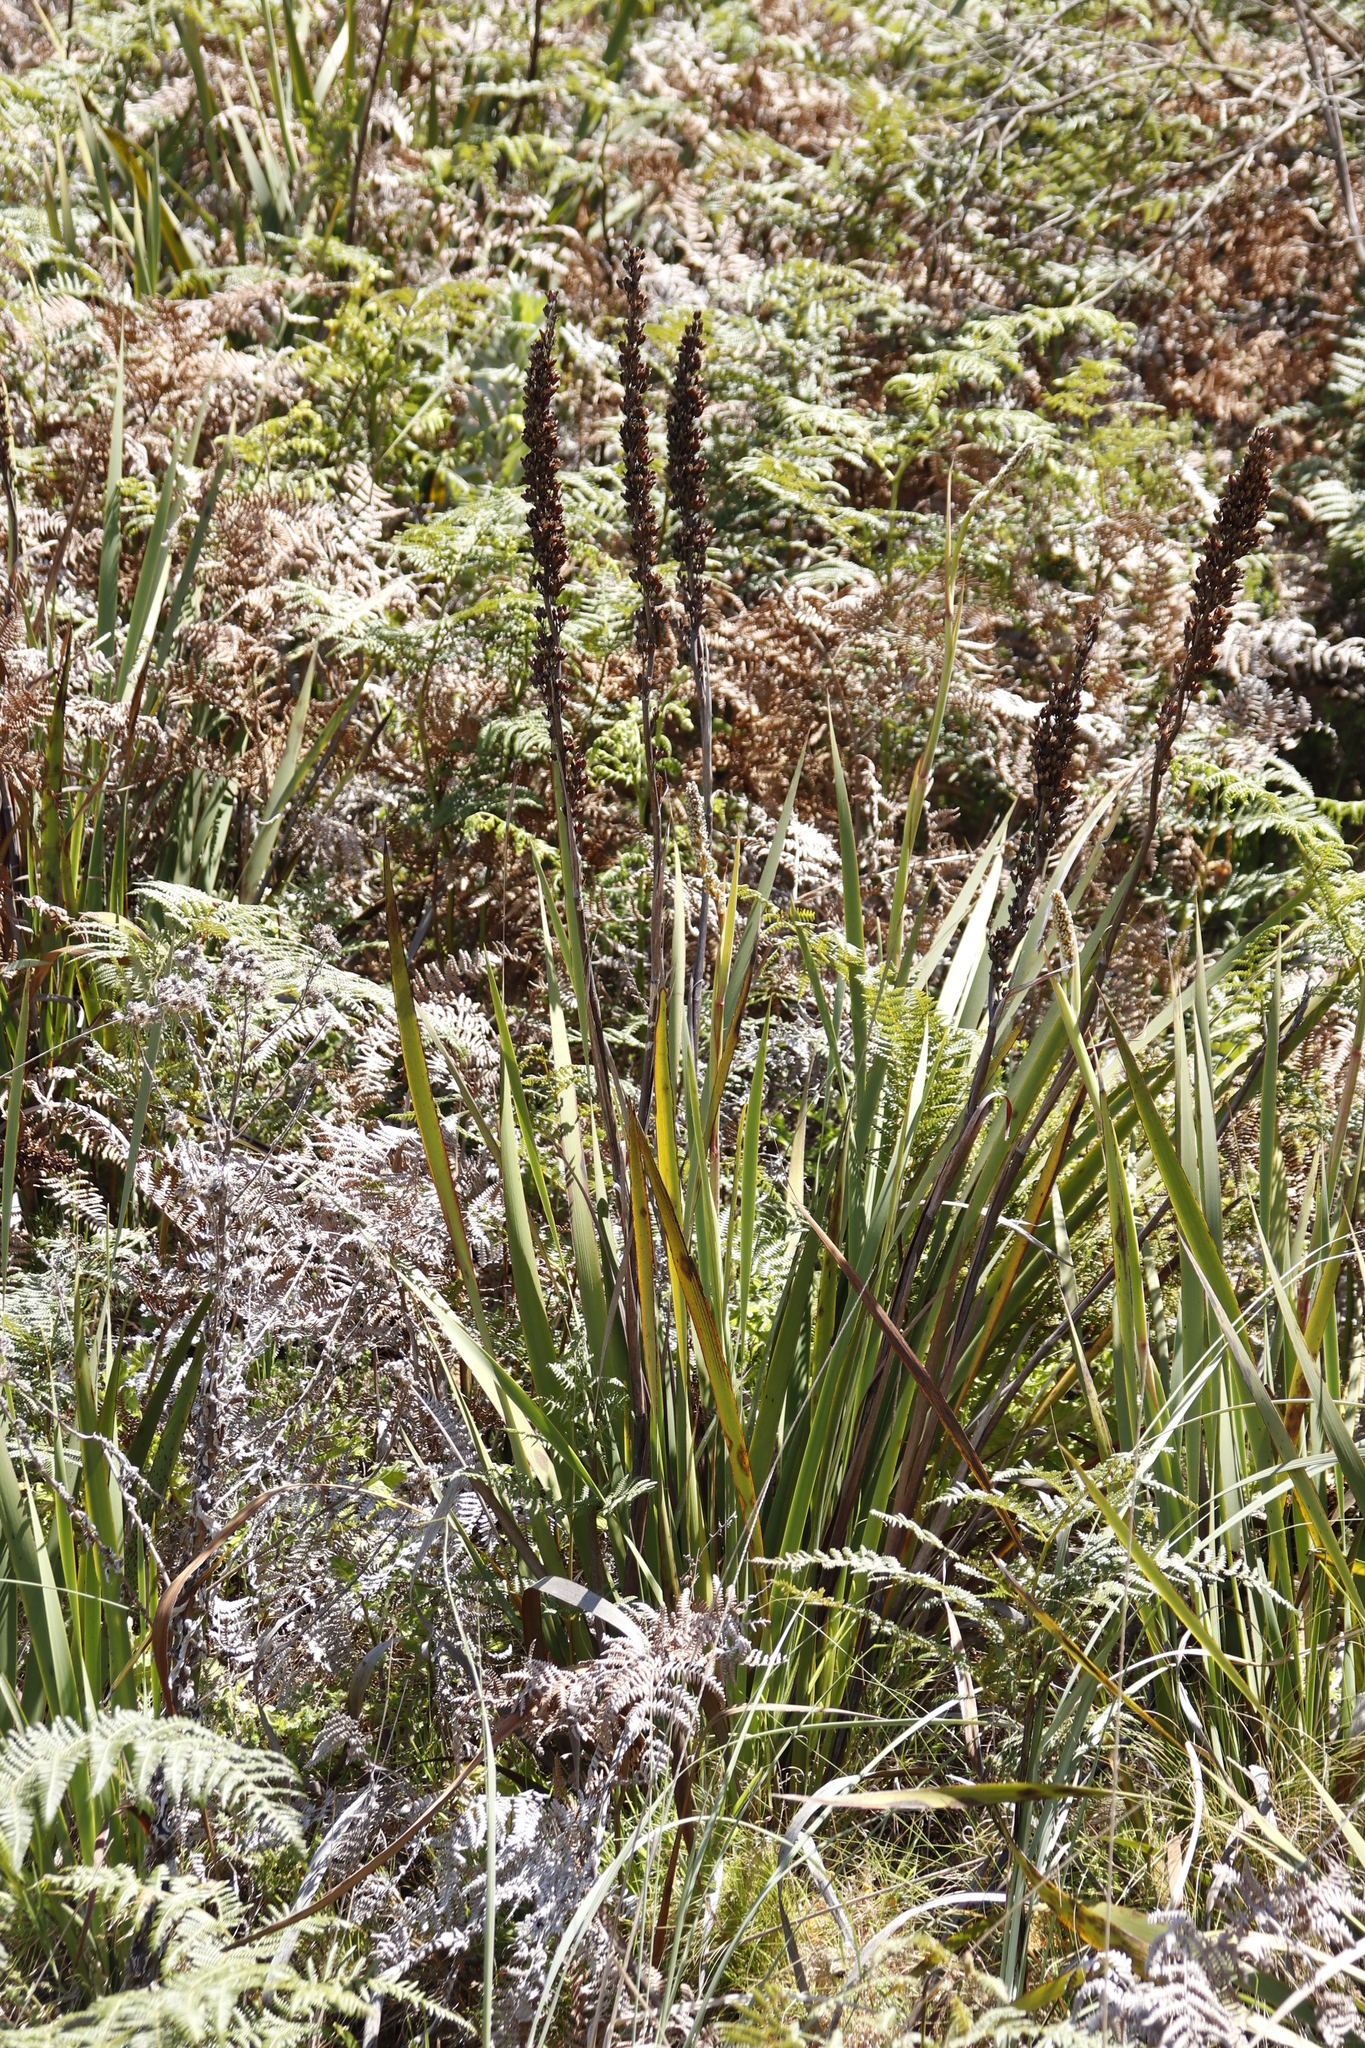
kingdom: Plantae
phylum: Tracheophyta
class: Liliopsida
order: Asparagales
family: Iridaceae
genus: Aristea
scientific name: Aristea capitata
